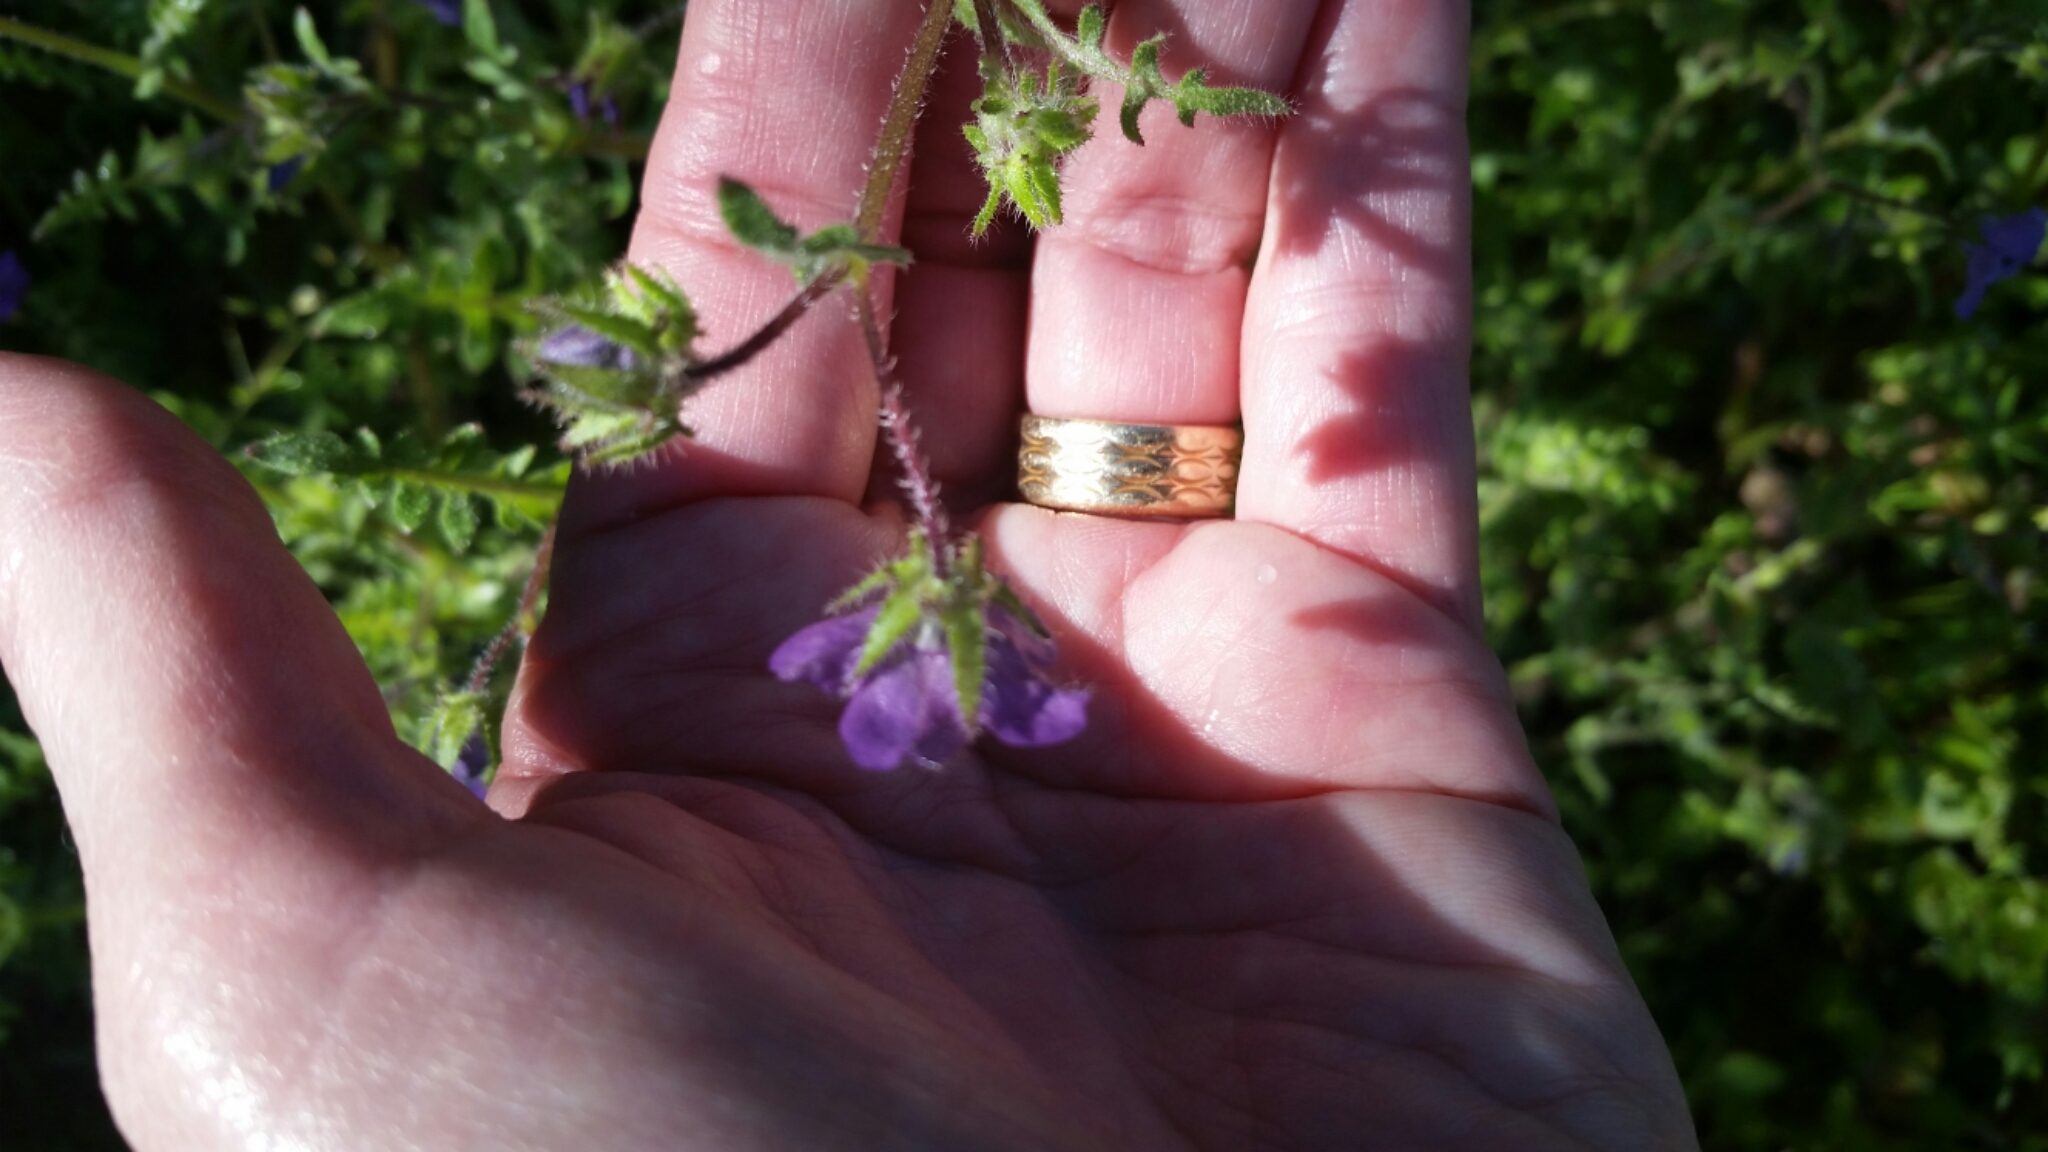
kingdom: Plantae
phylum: Tracheophyta
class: Magnoliopsida
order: Boraginales
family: Hydrophyllaceae
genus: Pholistoma
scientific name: Pholistoma auritum
